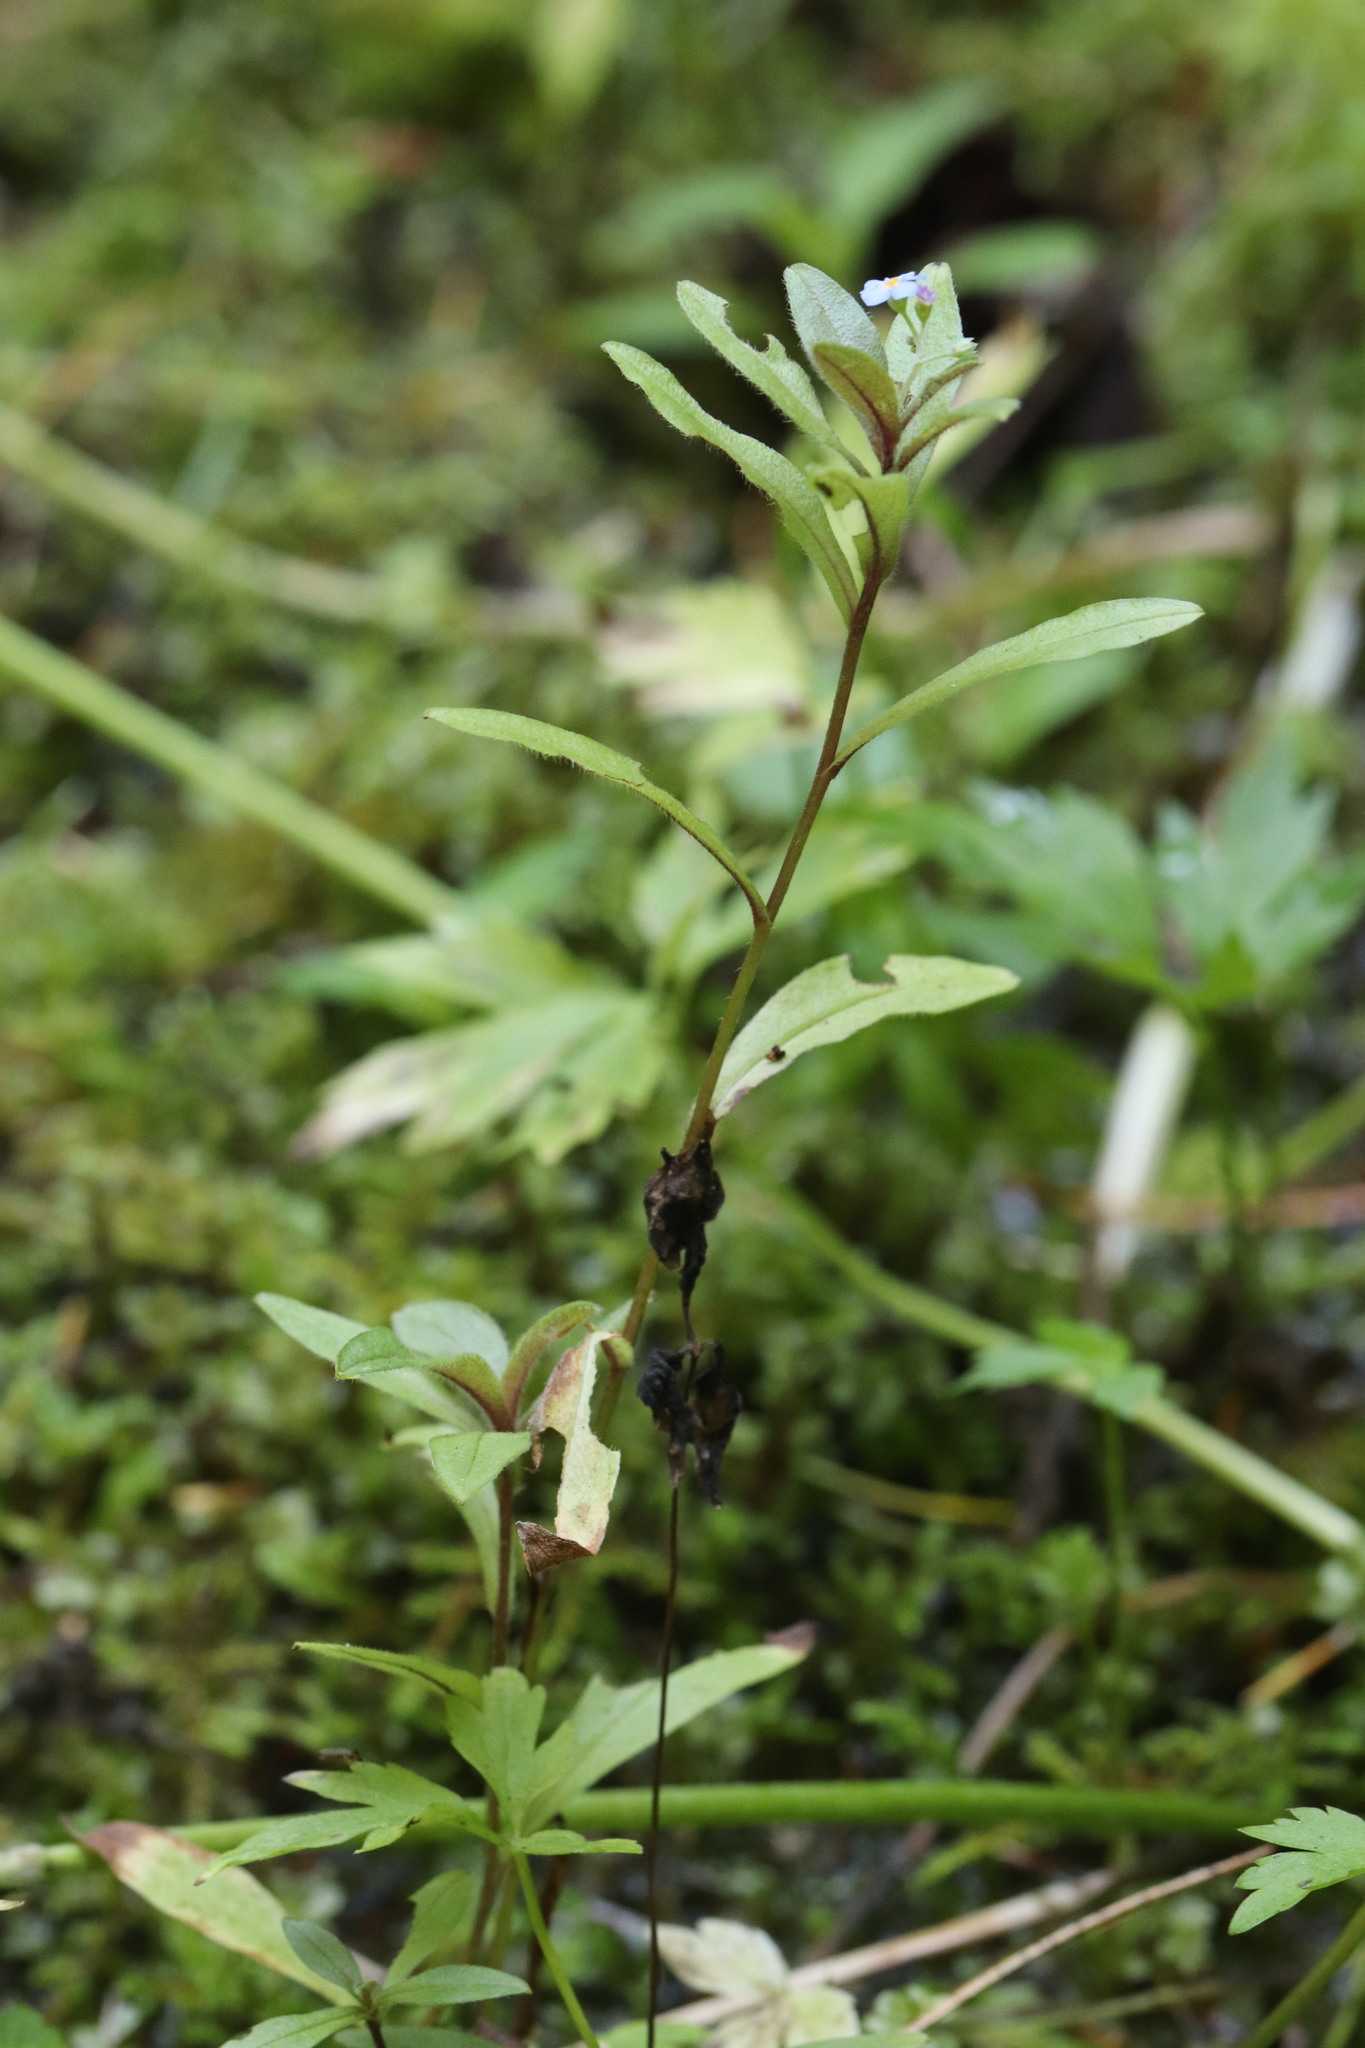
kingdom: Plantae
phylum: Tracheophyta
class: Magnoliopsida
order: Boraginales
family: Boraginaceae
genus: Myosotis
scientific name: Myosotis scorpioides
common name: Water forget-me-not
